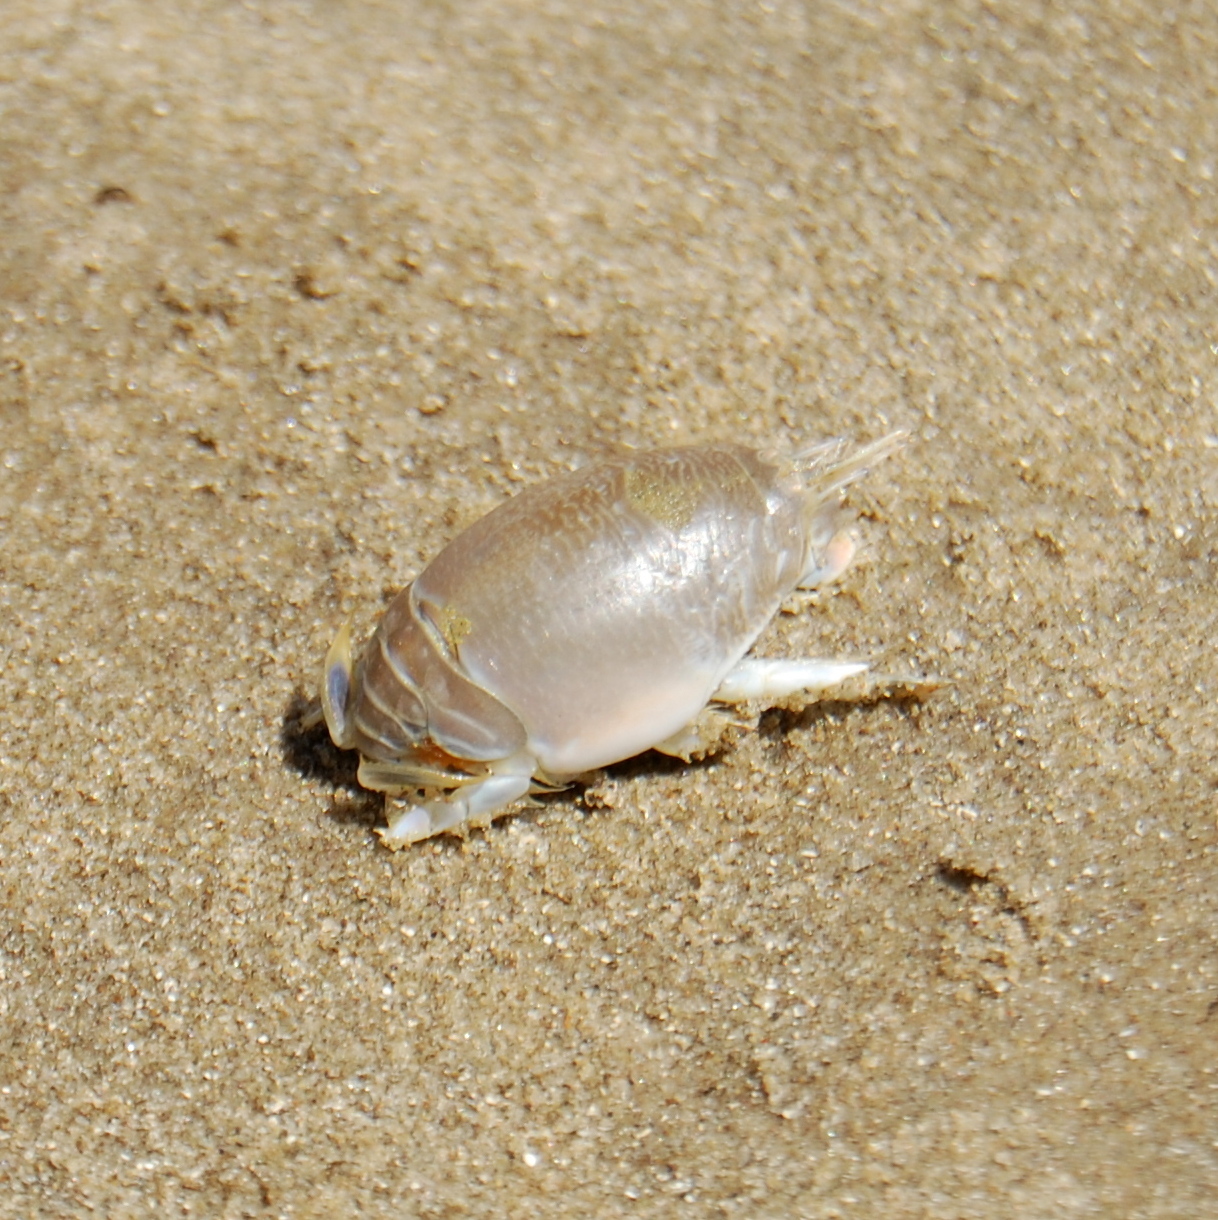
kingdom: Animalia
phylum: Arthropoda
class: Malacostraca
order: Decapoda
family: Hippidae
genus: Emerita
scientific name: Emerita brasiliensis
